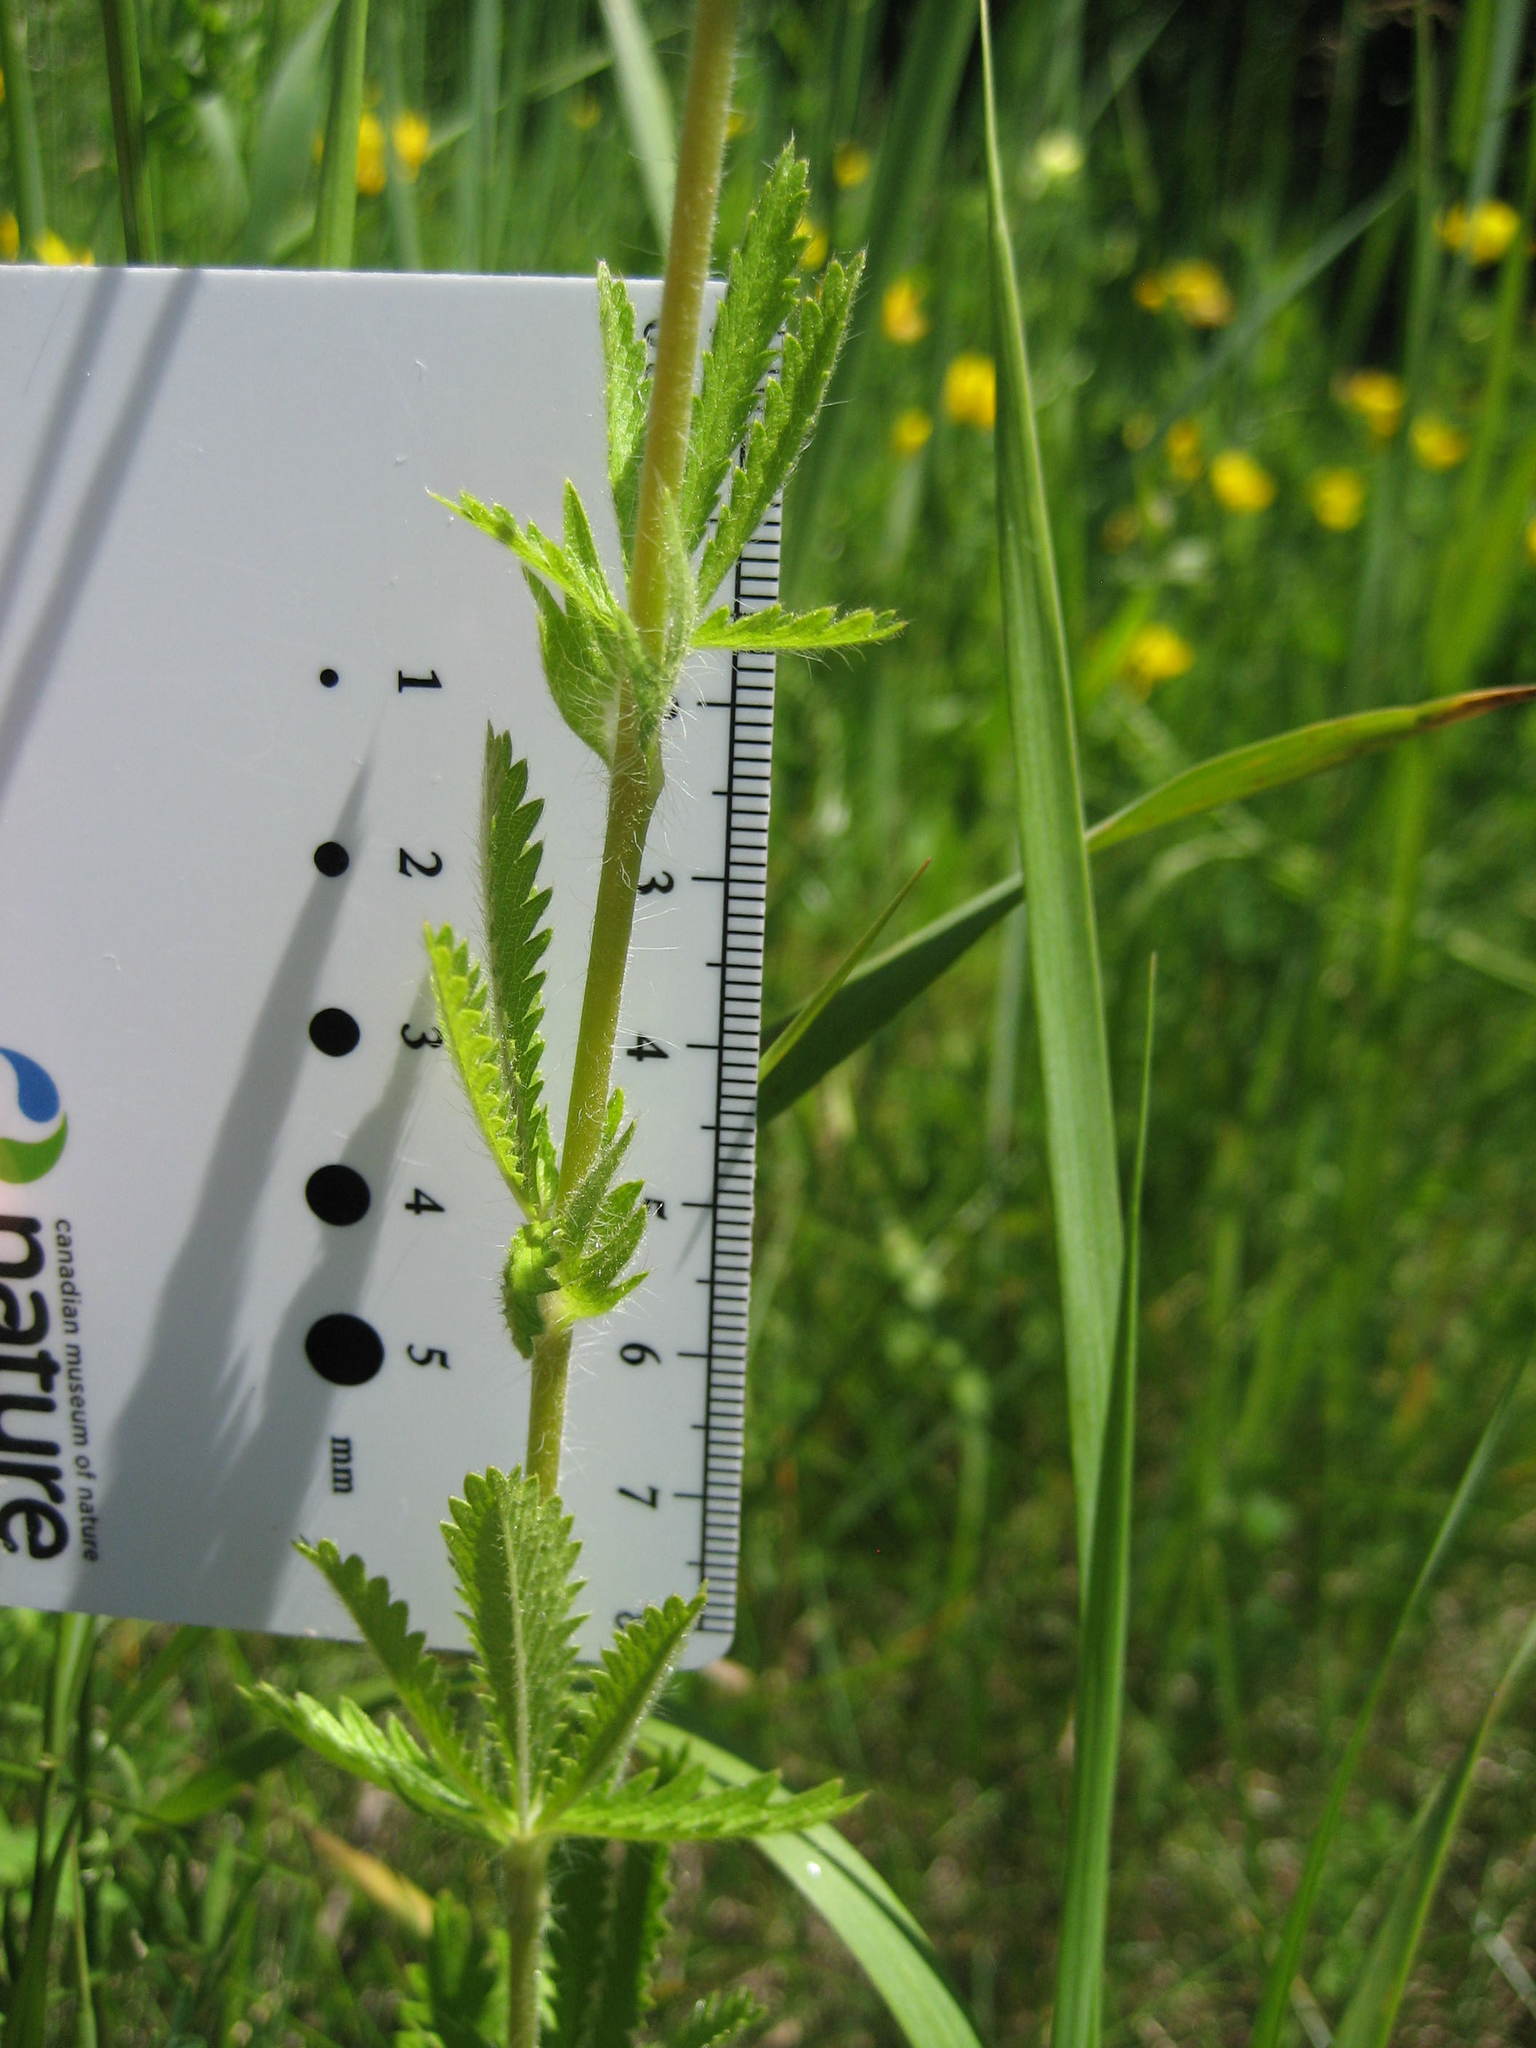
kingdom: Plantae
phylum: Tracheophyta
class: Magnoliopsida
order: Rosales
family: Rosaceae
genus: Potentilla
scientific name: Potentilla recta
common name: Sulphur cinquefoil
